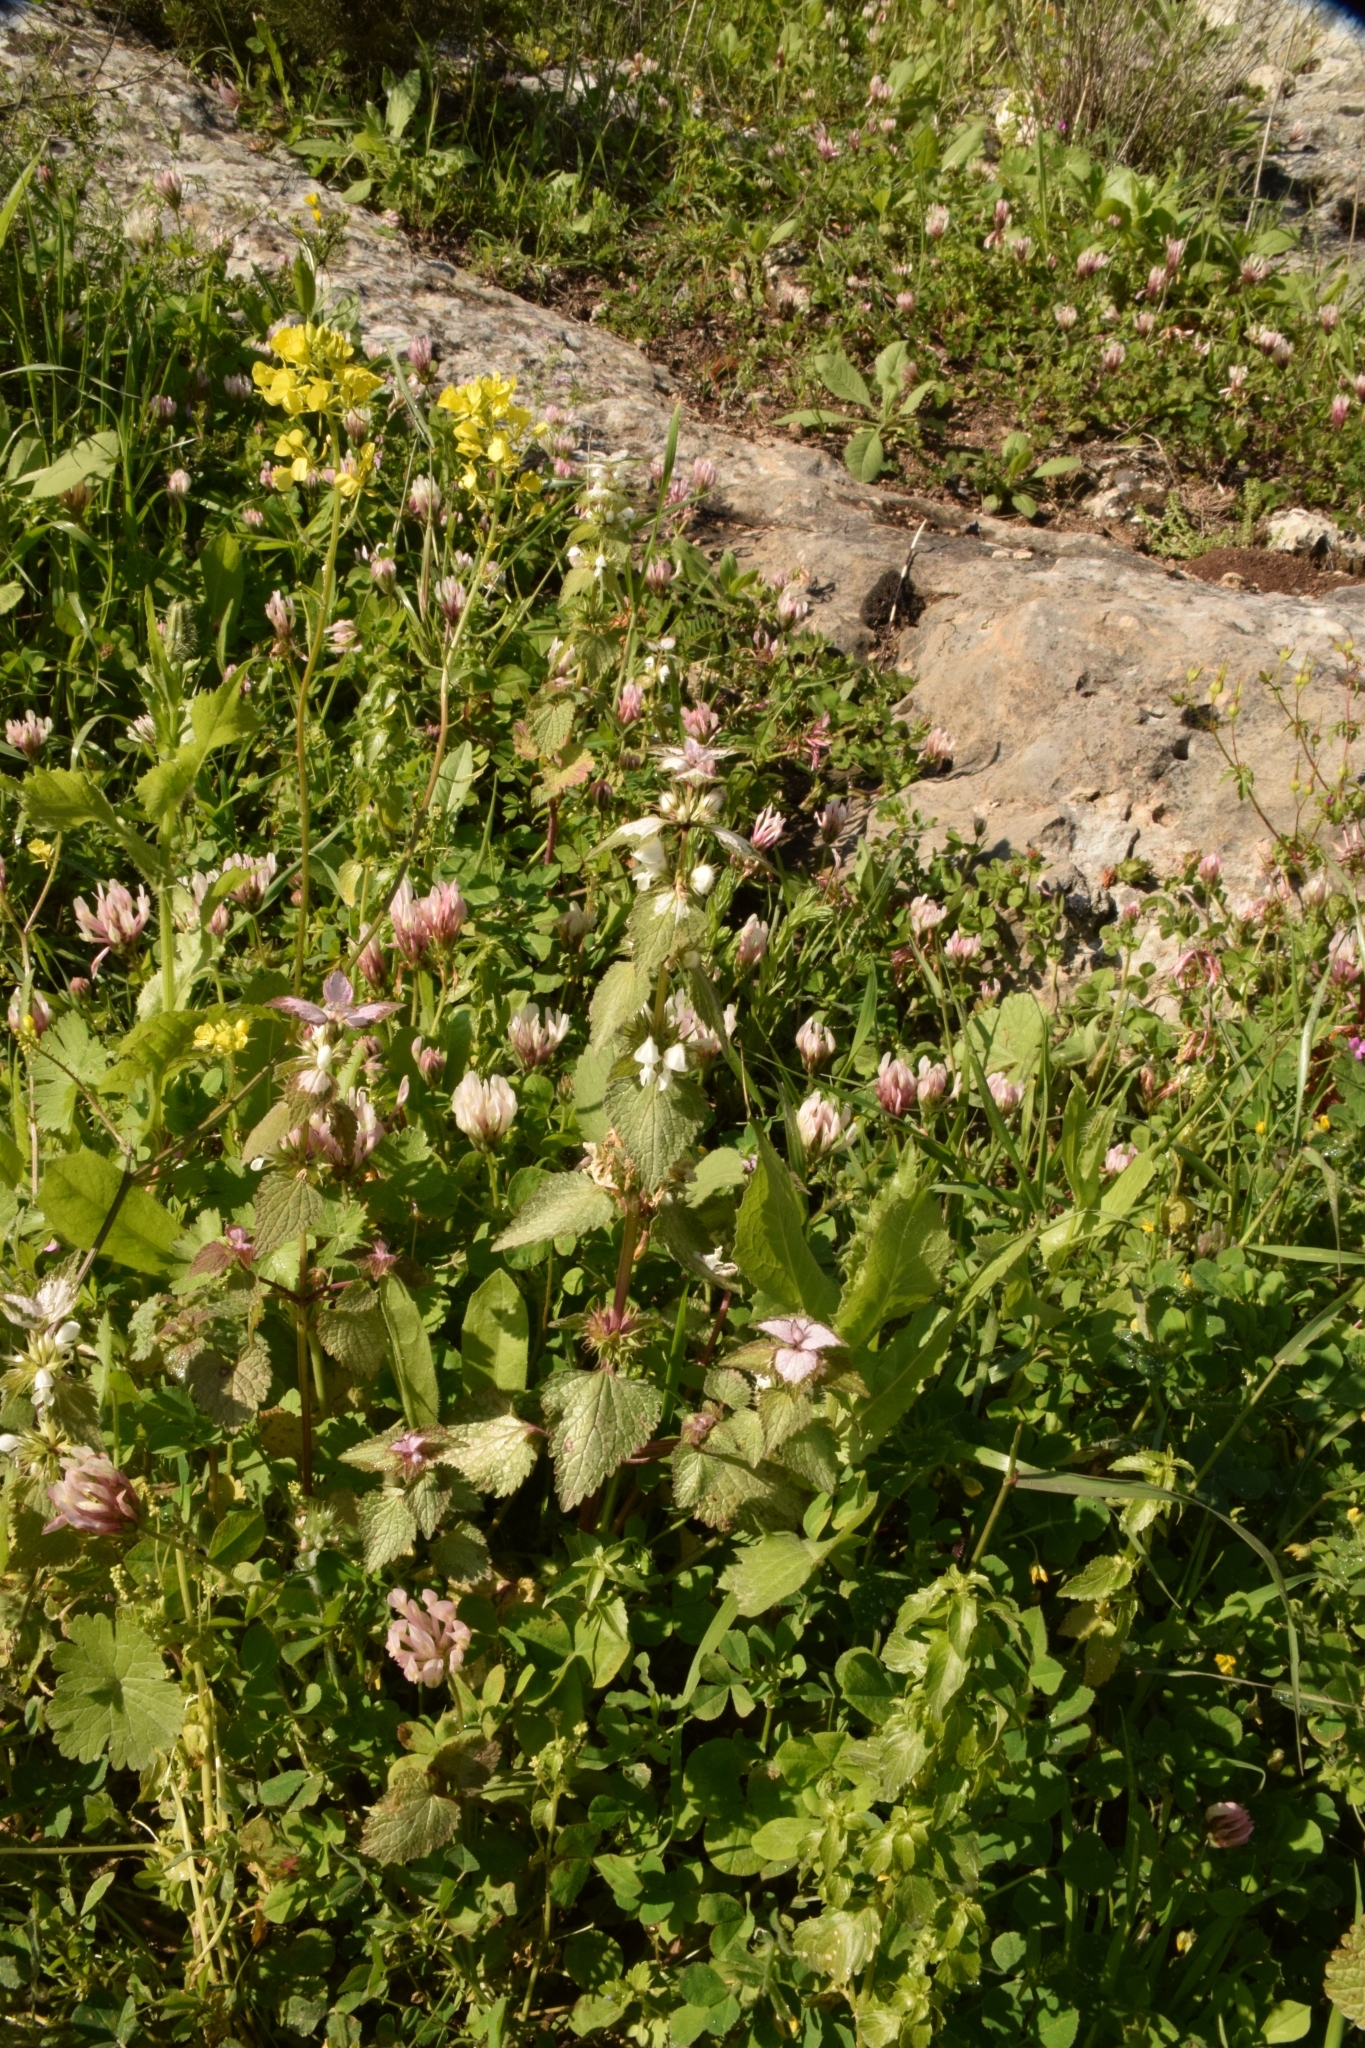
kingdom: Plantae
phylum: Tracheophyta
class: Magnoliopsida
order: Lamiales
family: Lamiaceae
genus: Lamium
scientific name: Lamium moschatum
